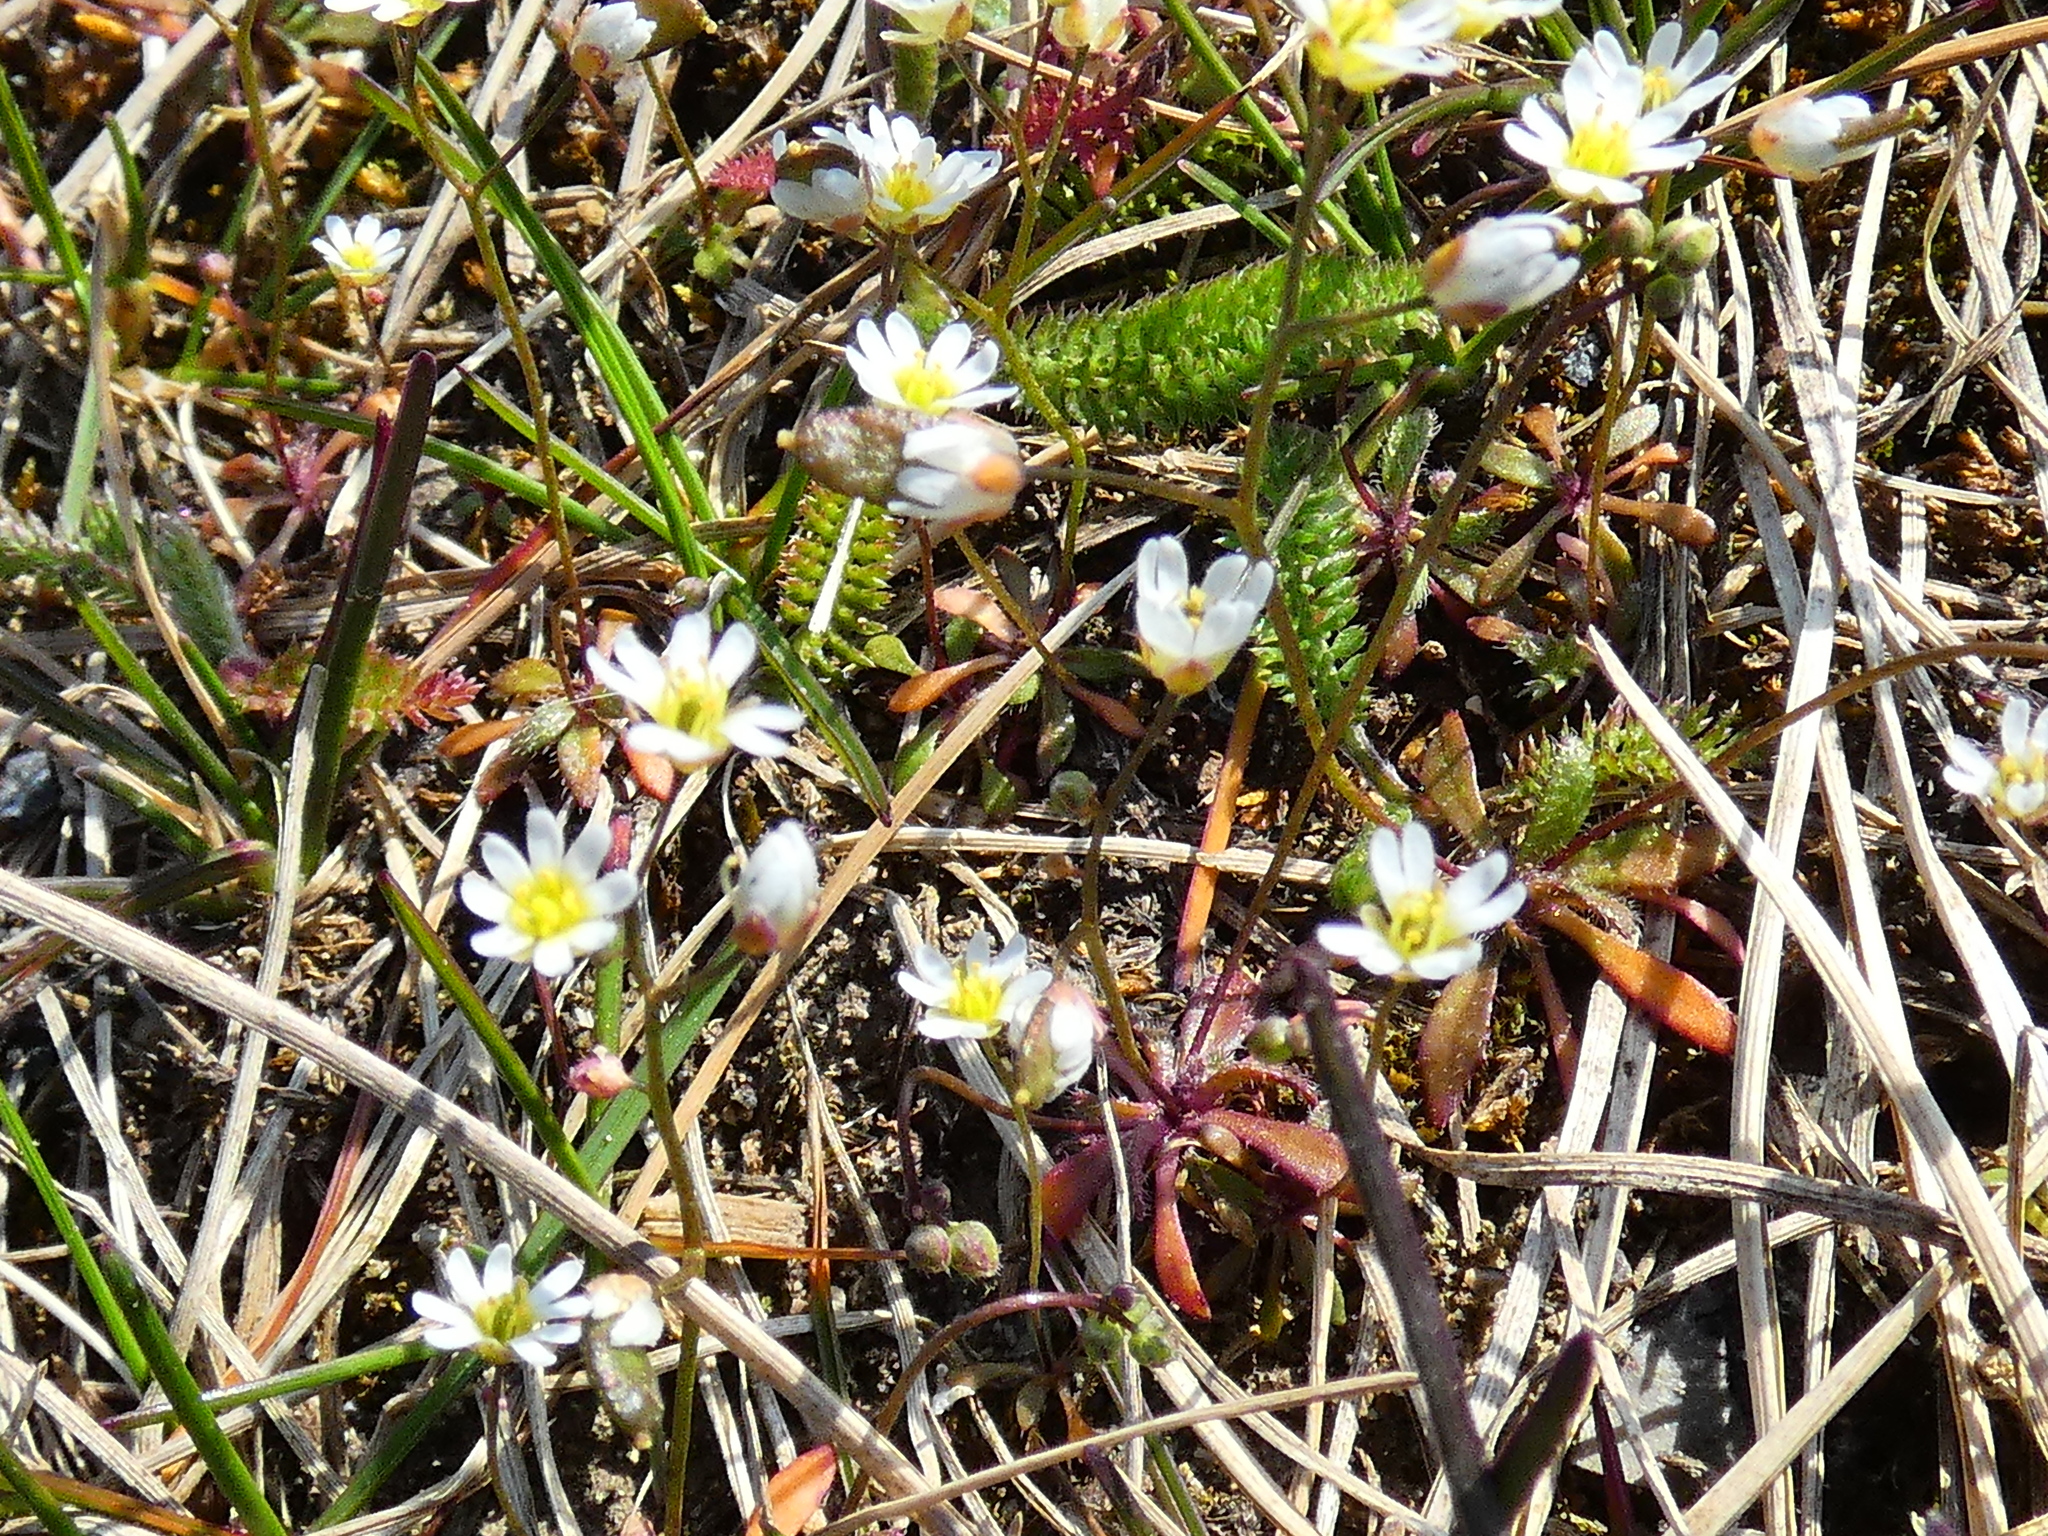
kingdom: Plantae
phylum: Tracheophyta
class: Magnoliopsida
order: Brassicales
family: Brassicaceae
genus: Draba
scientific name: Draba verna
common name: Spring draba
